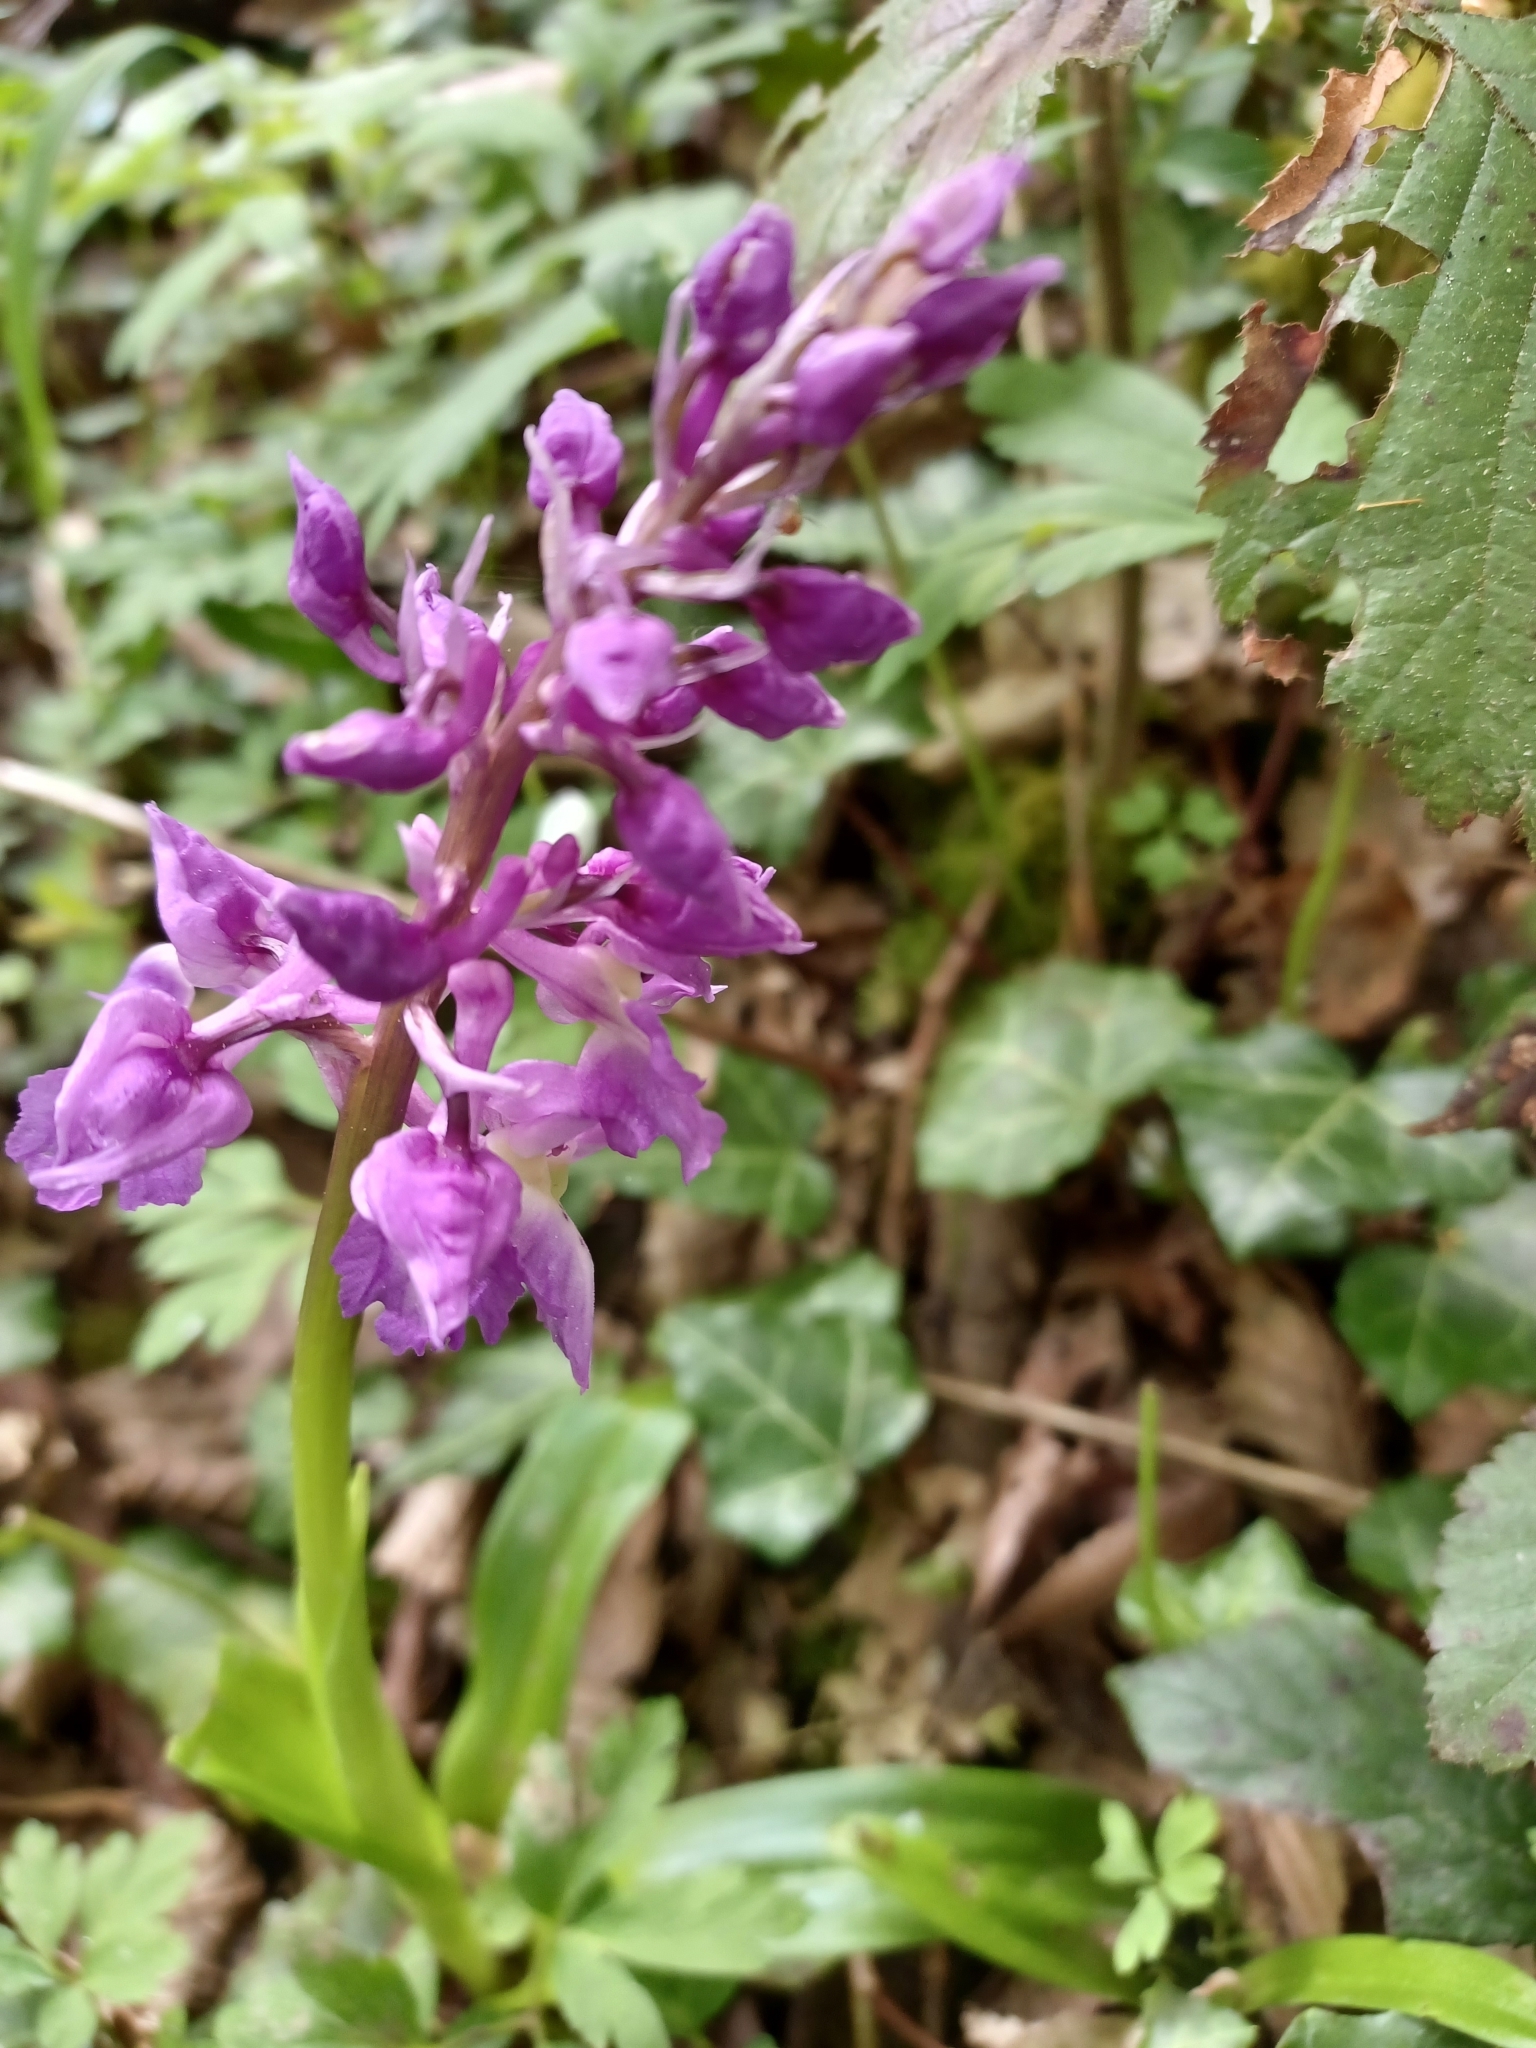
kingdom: Plantae
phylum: Tracheophyta
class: Liliopsida
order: Asparagales
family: Orchidaceae
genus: Orchis
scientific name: Orchis mascula
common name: Early-purple orchid
